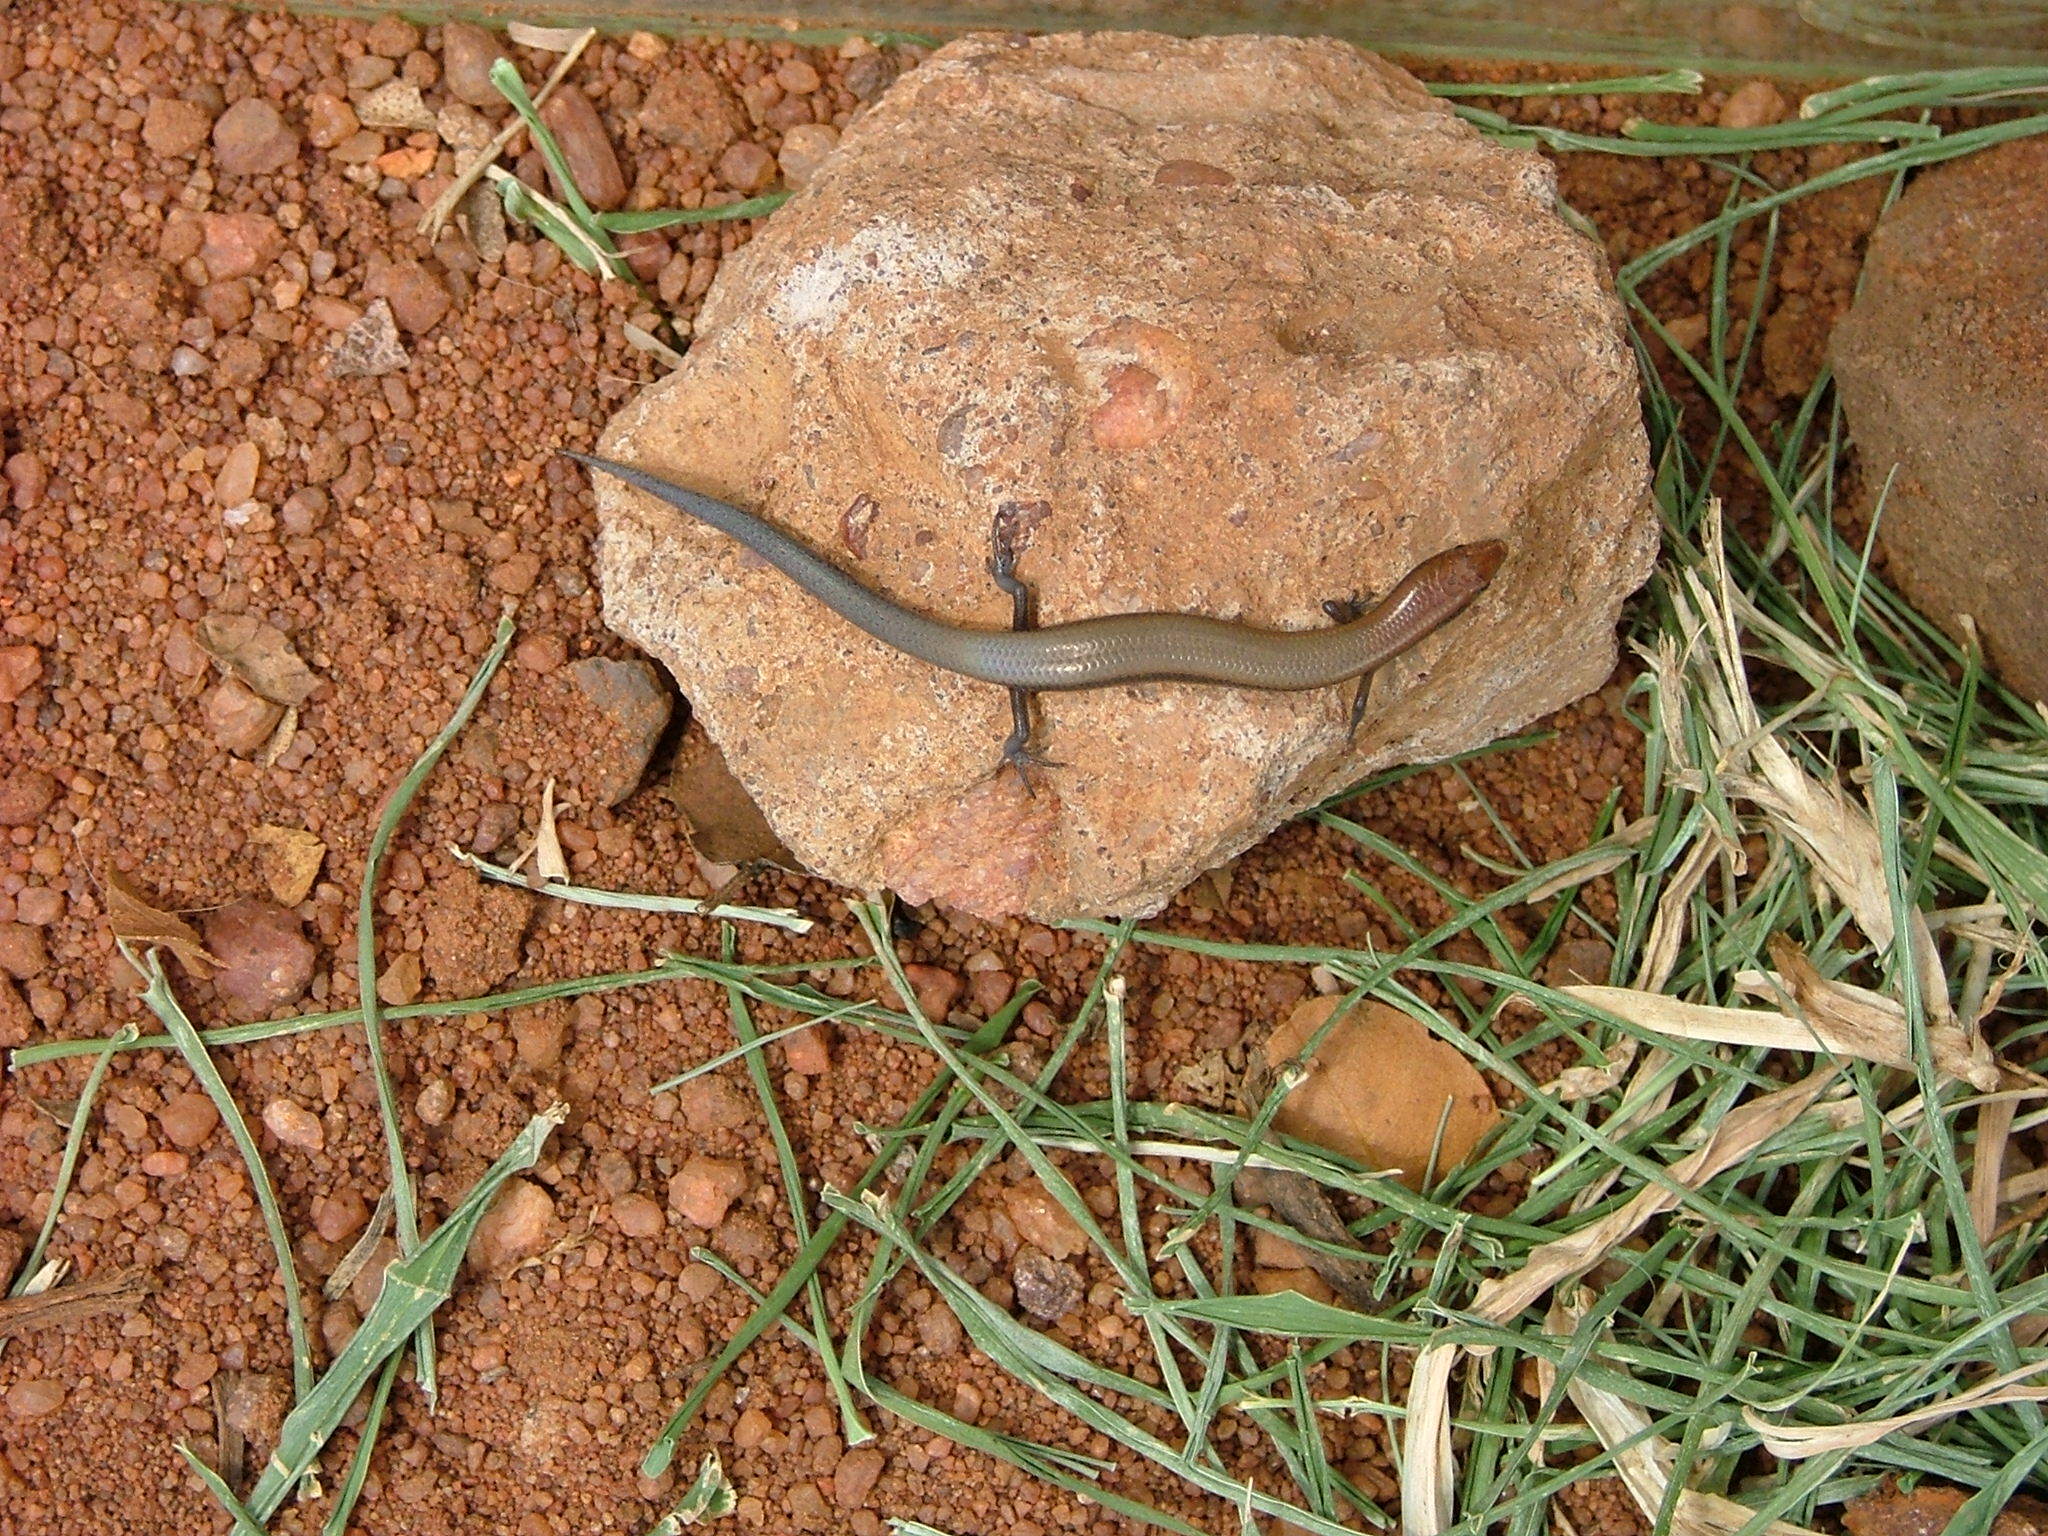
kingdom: Animalia
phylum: Chordata
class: Squamata
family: Scincidae
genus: Panaspis
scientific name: Panaspis wahlbergii
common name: Angolan snake-eyed skink
